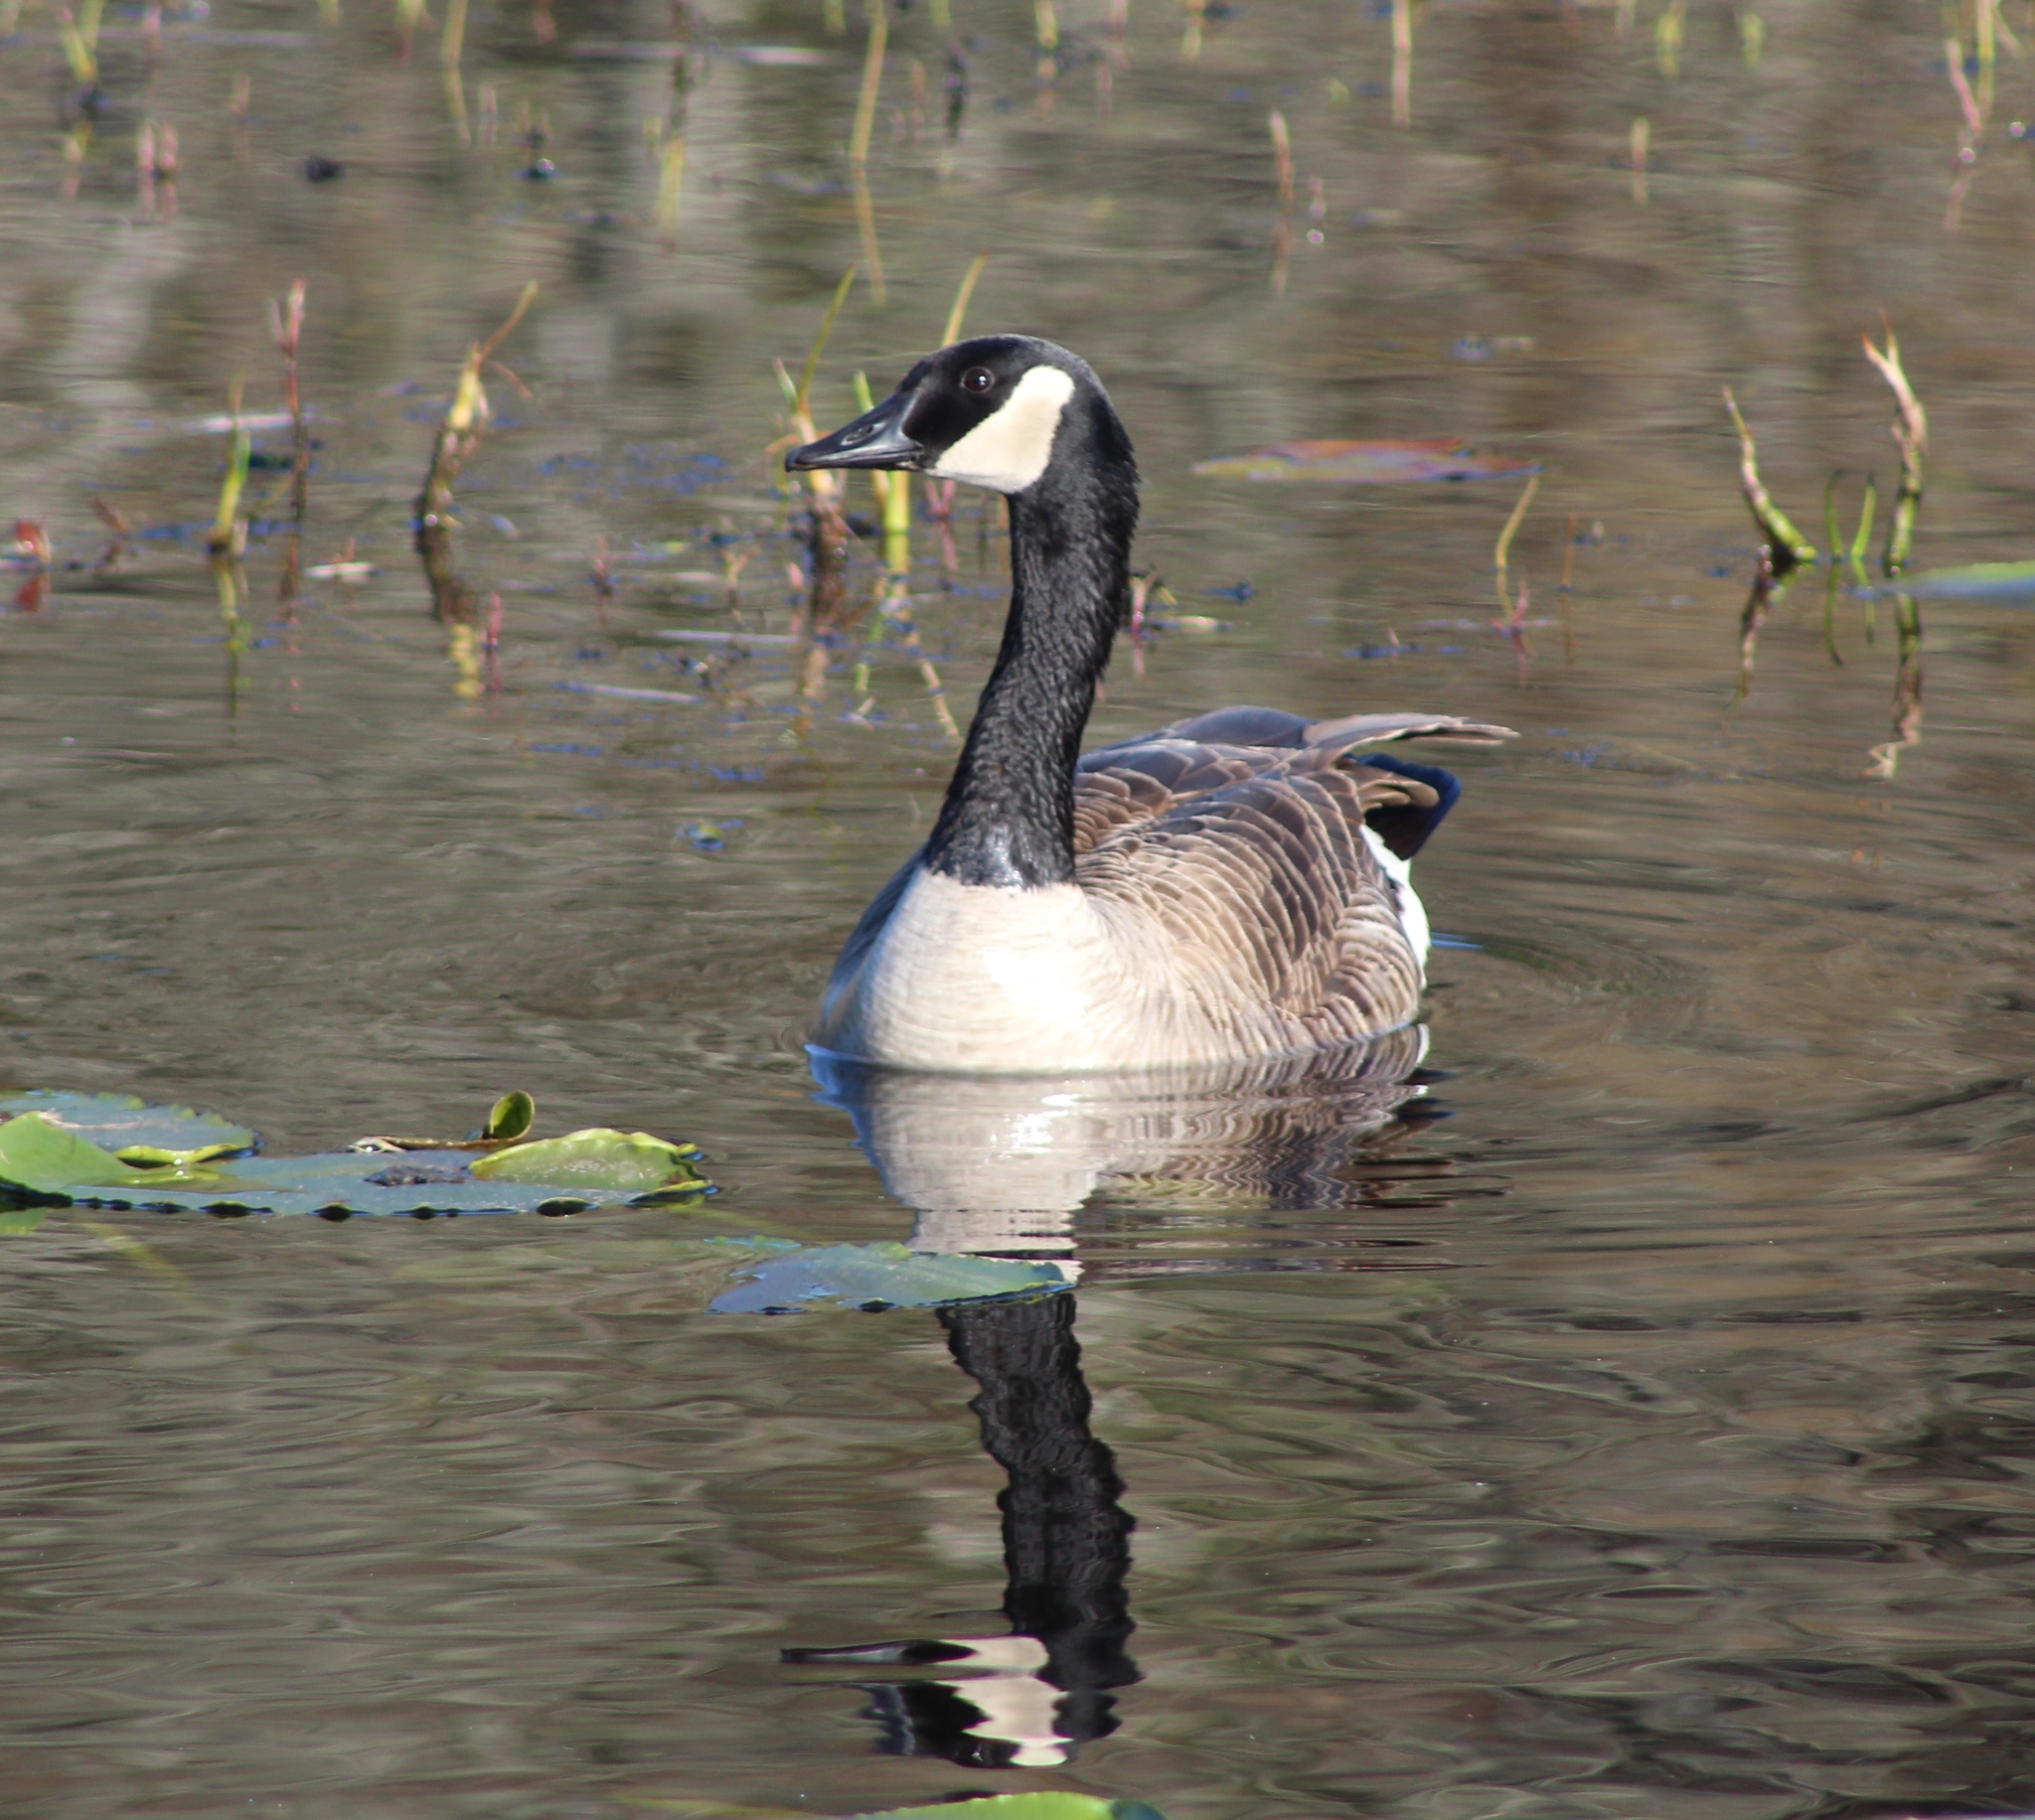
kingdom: Animalia
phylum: Chordata
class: Aves
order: Anseriformes
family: Anatidae
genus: Branta
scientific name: Branta canadensis
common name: Canada goose
